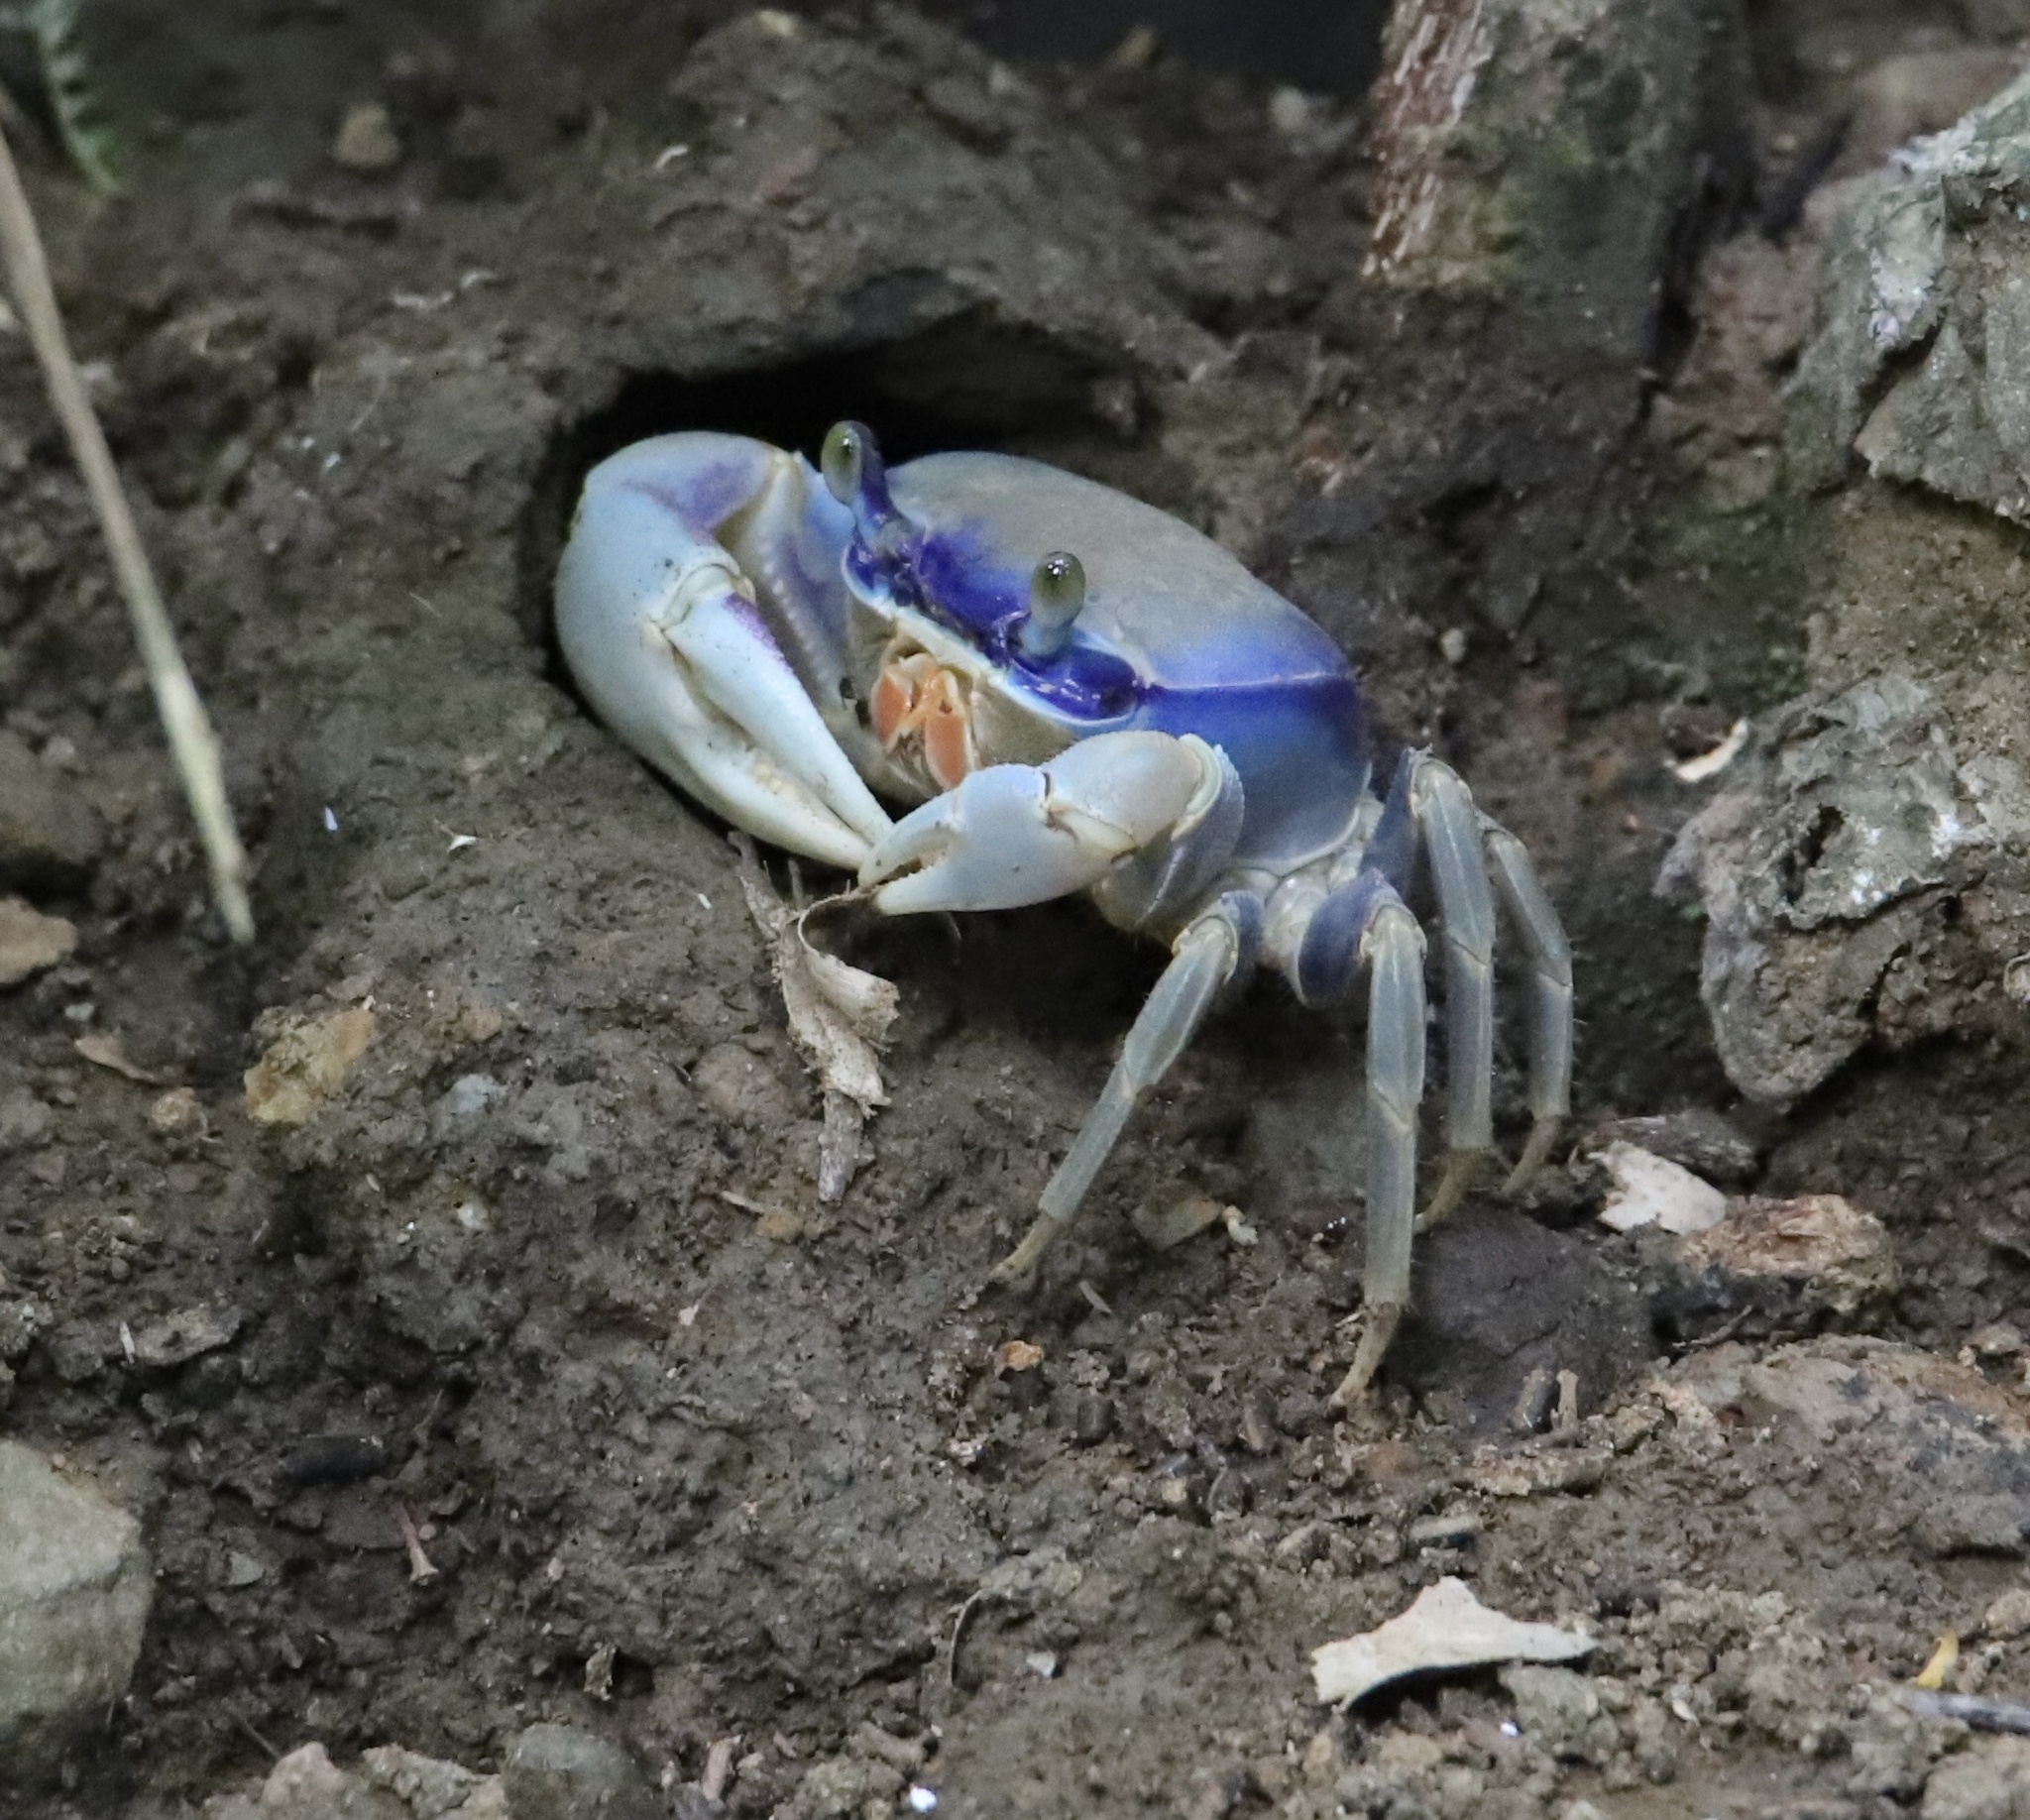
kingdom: Animalia
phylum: Arthropoda
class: Malacostraca
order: Decapoda
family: Gecarcinidae
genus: Cardisoma
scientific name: Cardisoma guanhumi
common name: Great land crab
